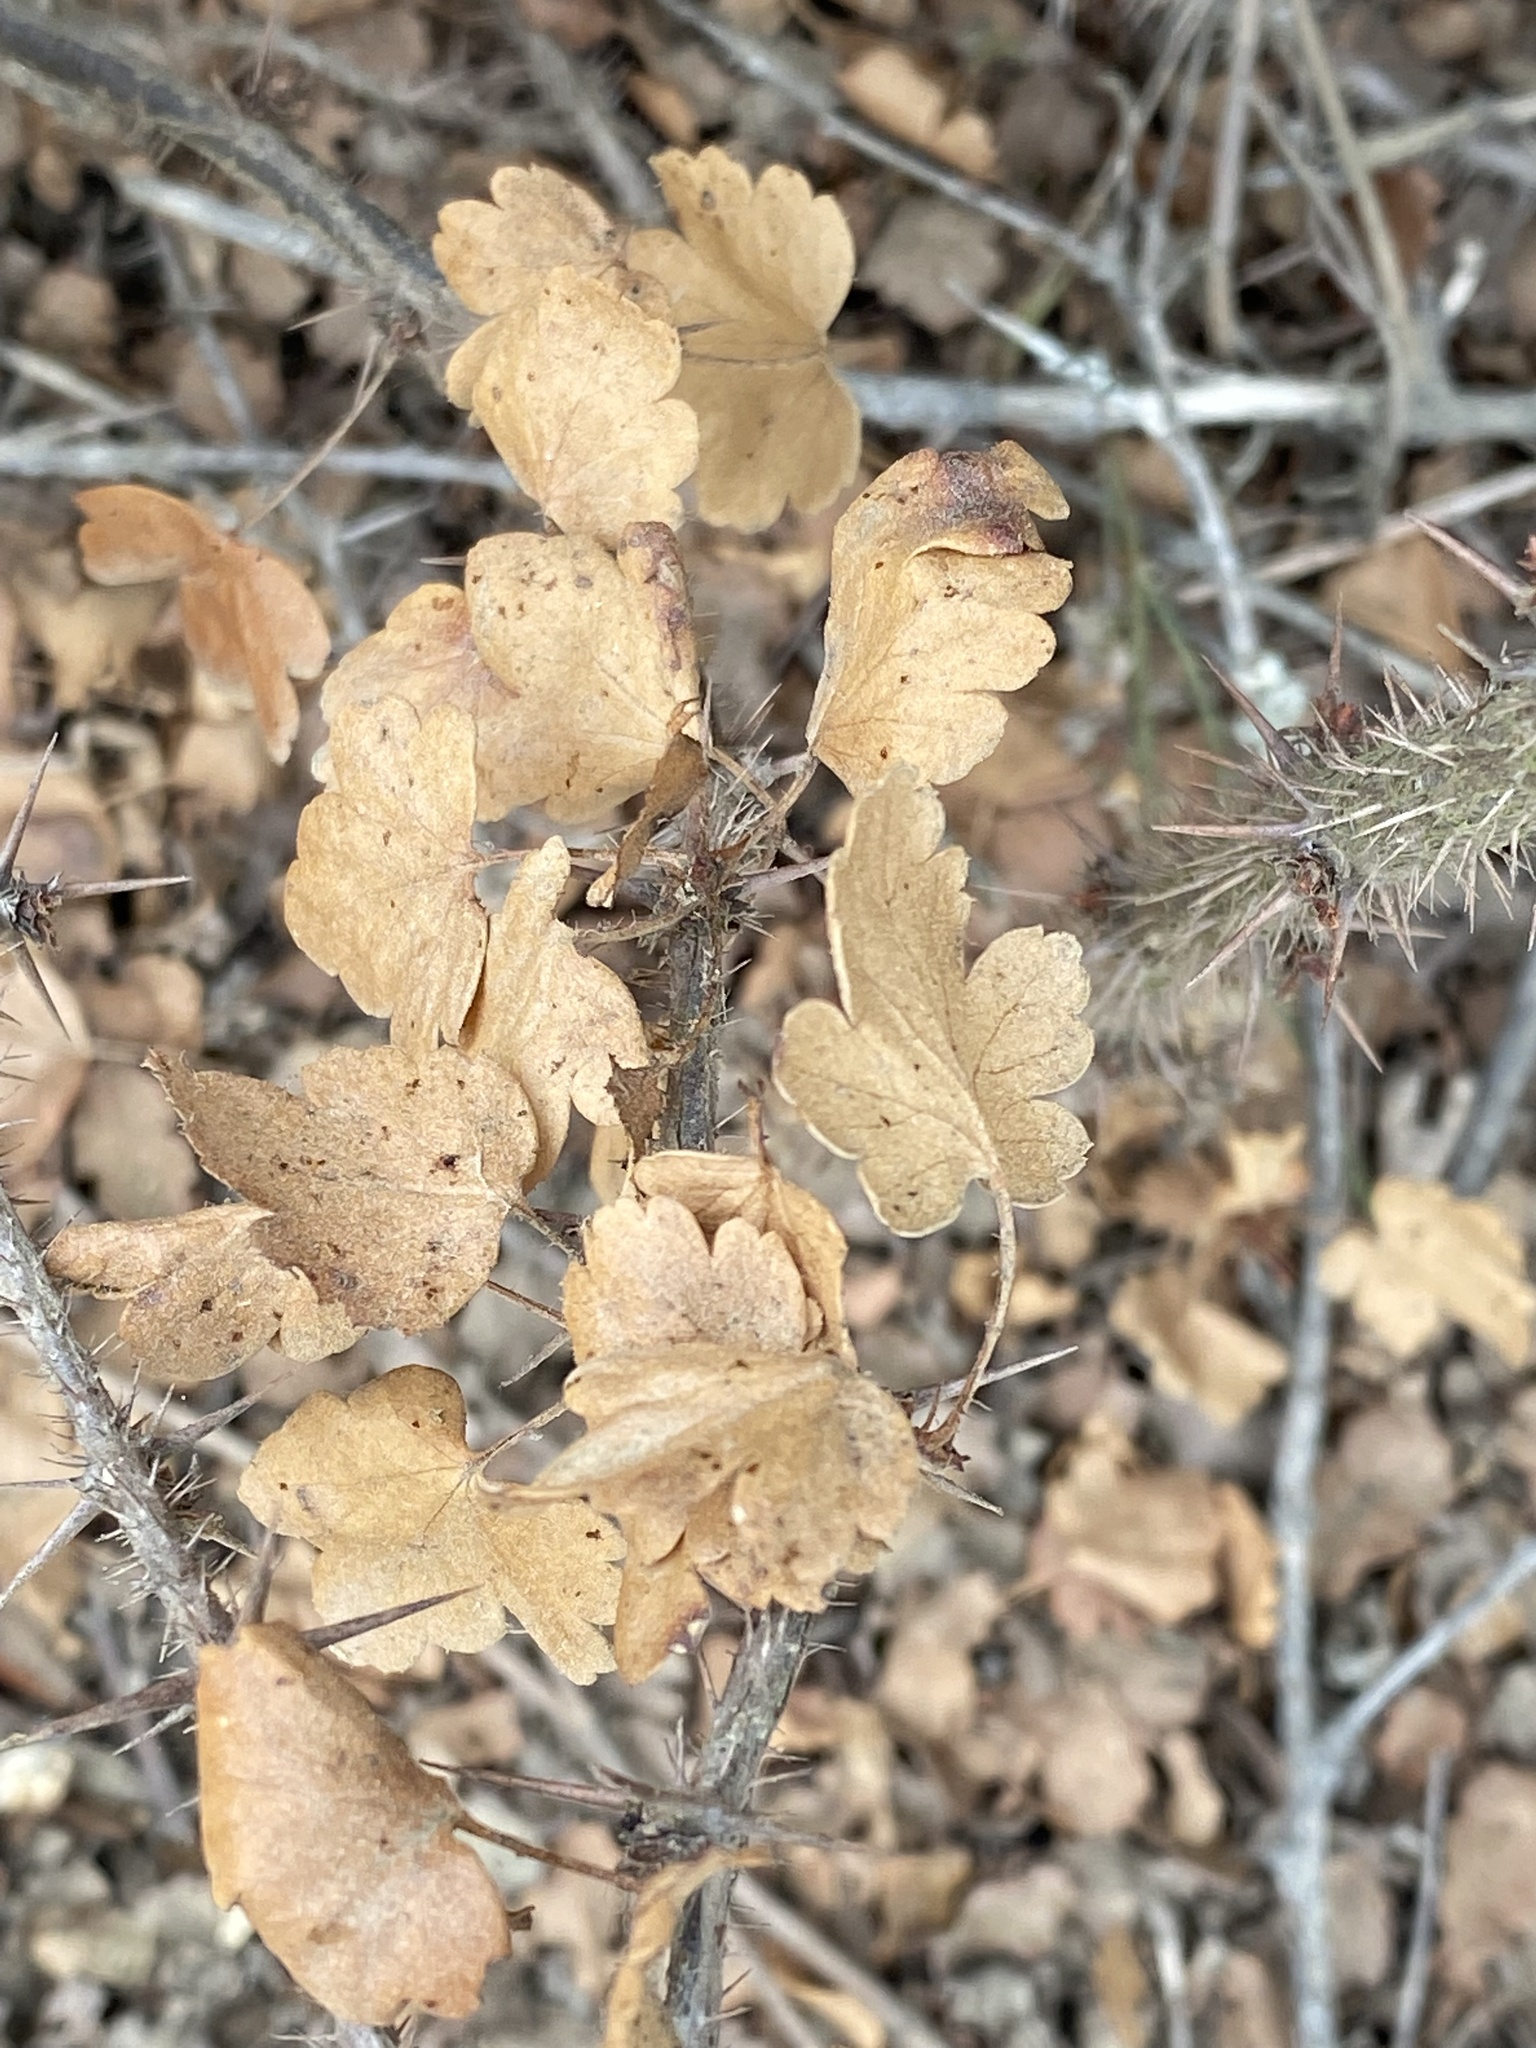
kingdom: Plantae
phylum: Tracheophyta
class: Magnoliopsida
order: Saxifragales
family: Grossulariaceae
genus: Ribes
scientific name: Ribes speciosum
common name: Fuchsia-flower gooseberry
